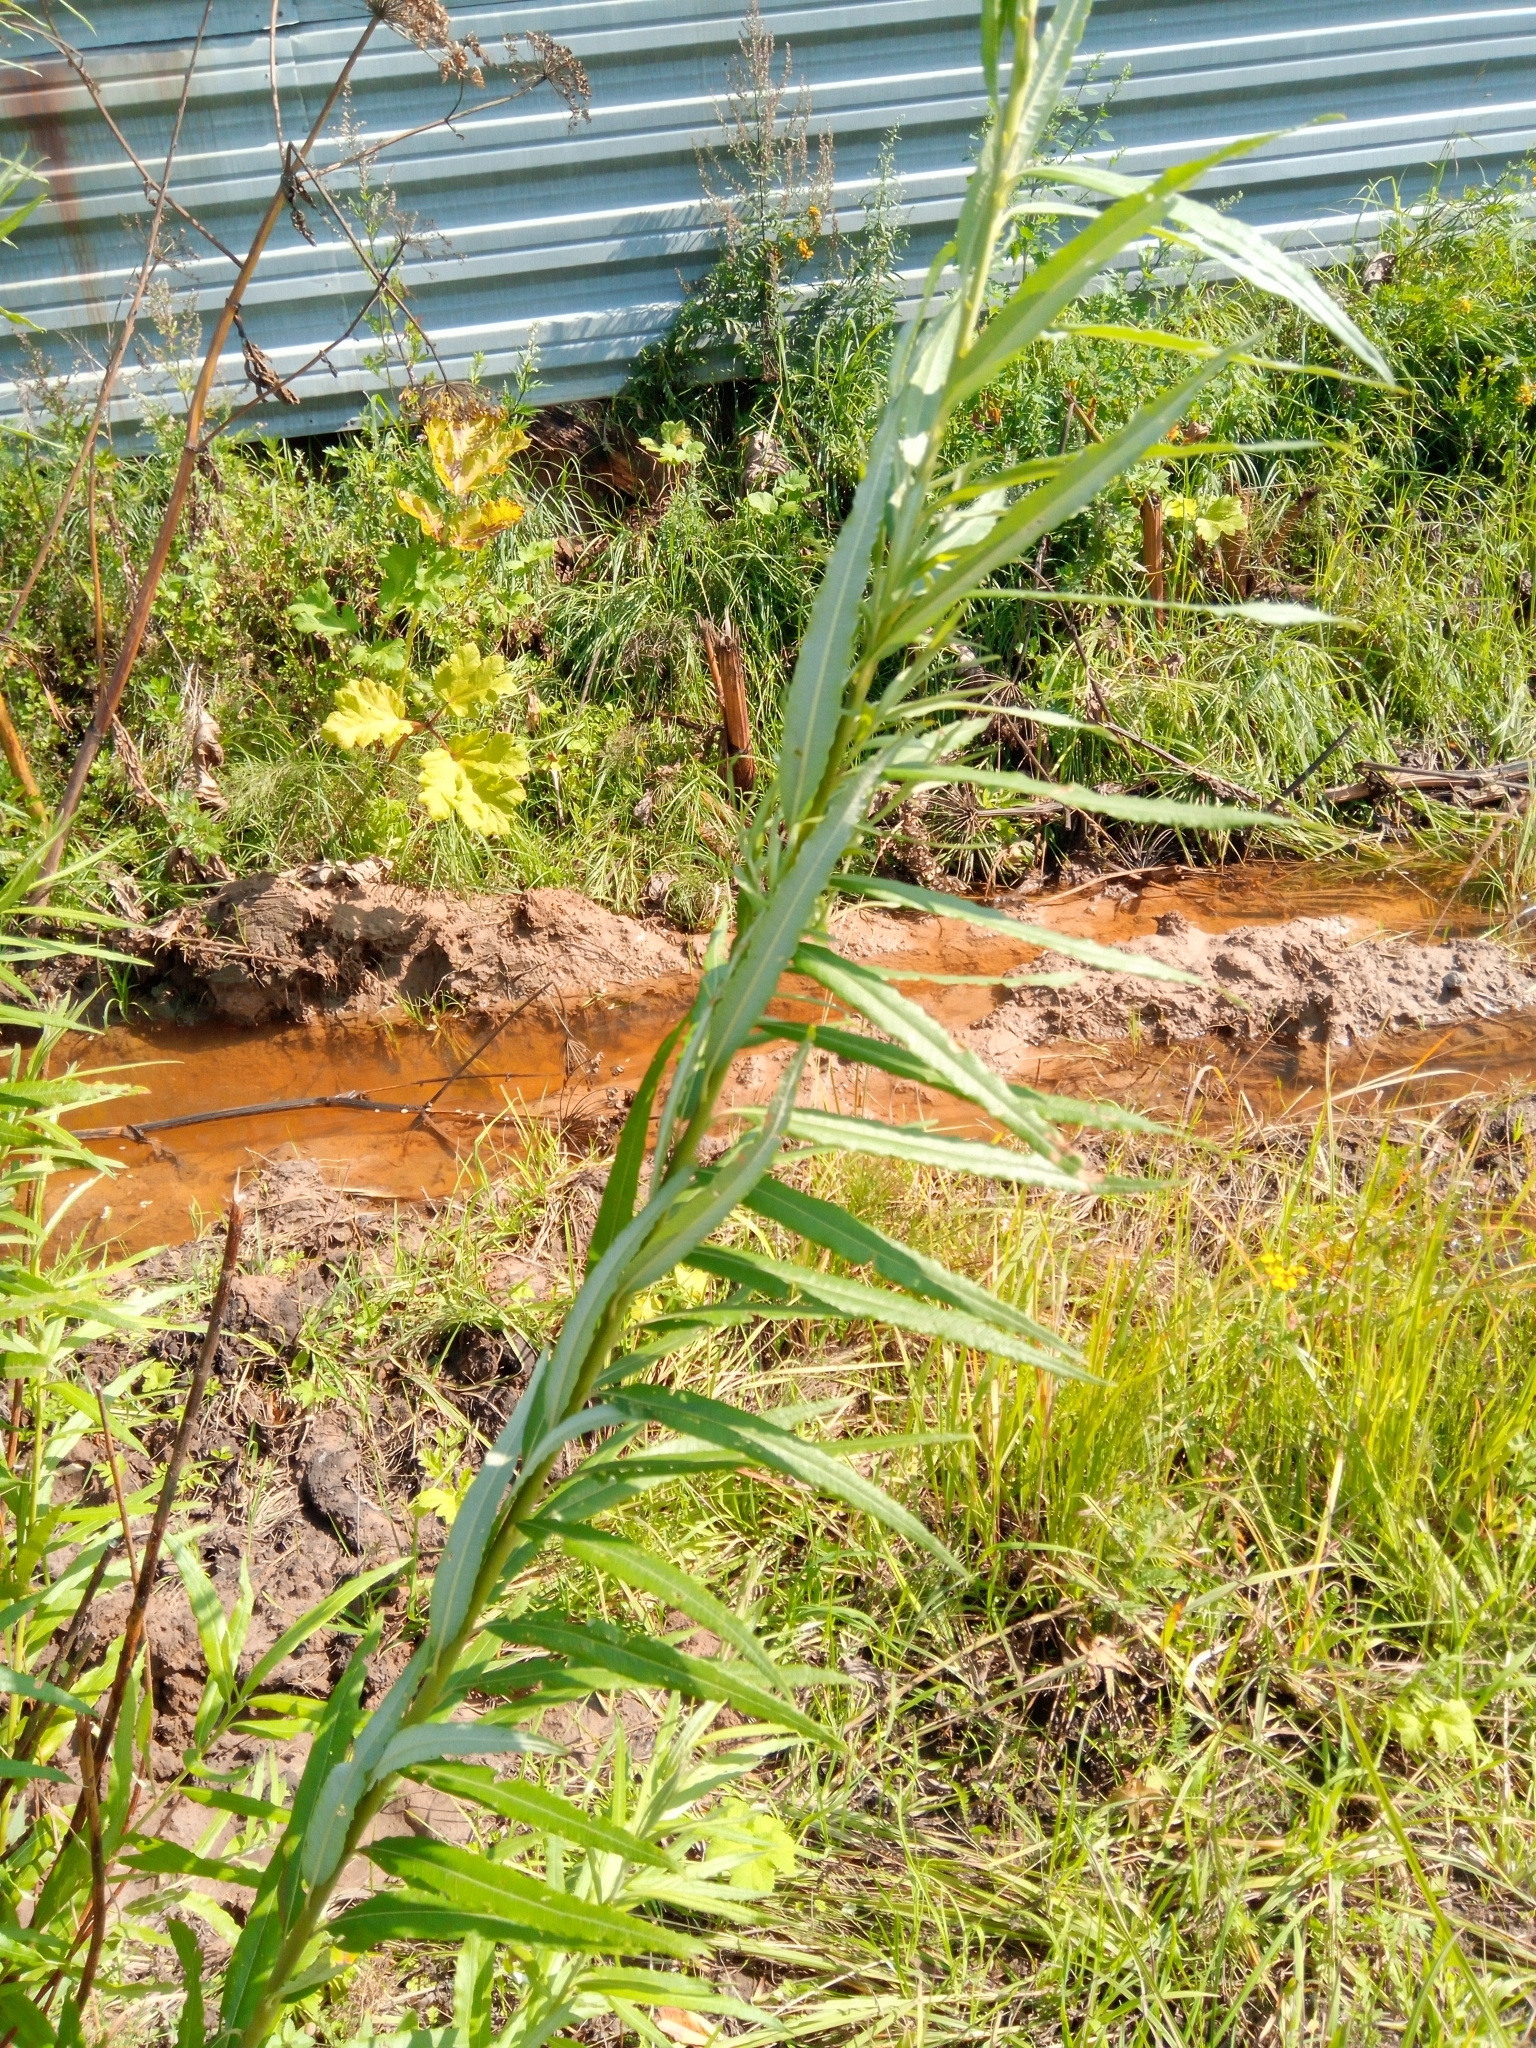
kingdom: Plantae
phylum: Tracheophyta
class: Magnoliopsida
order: Malpighiales
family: Salicaceae
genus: Salix
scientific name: Salix viminalis
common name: Osier
